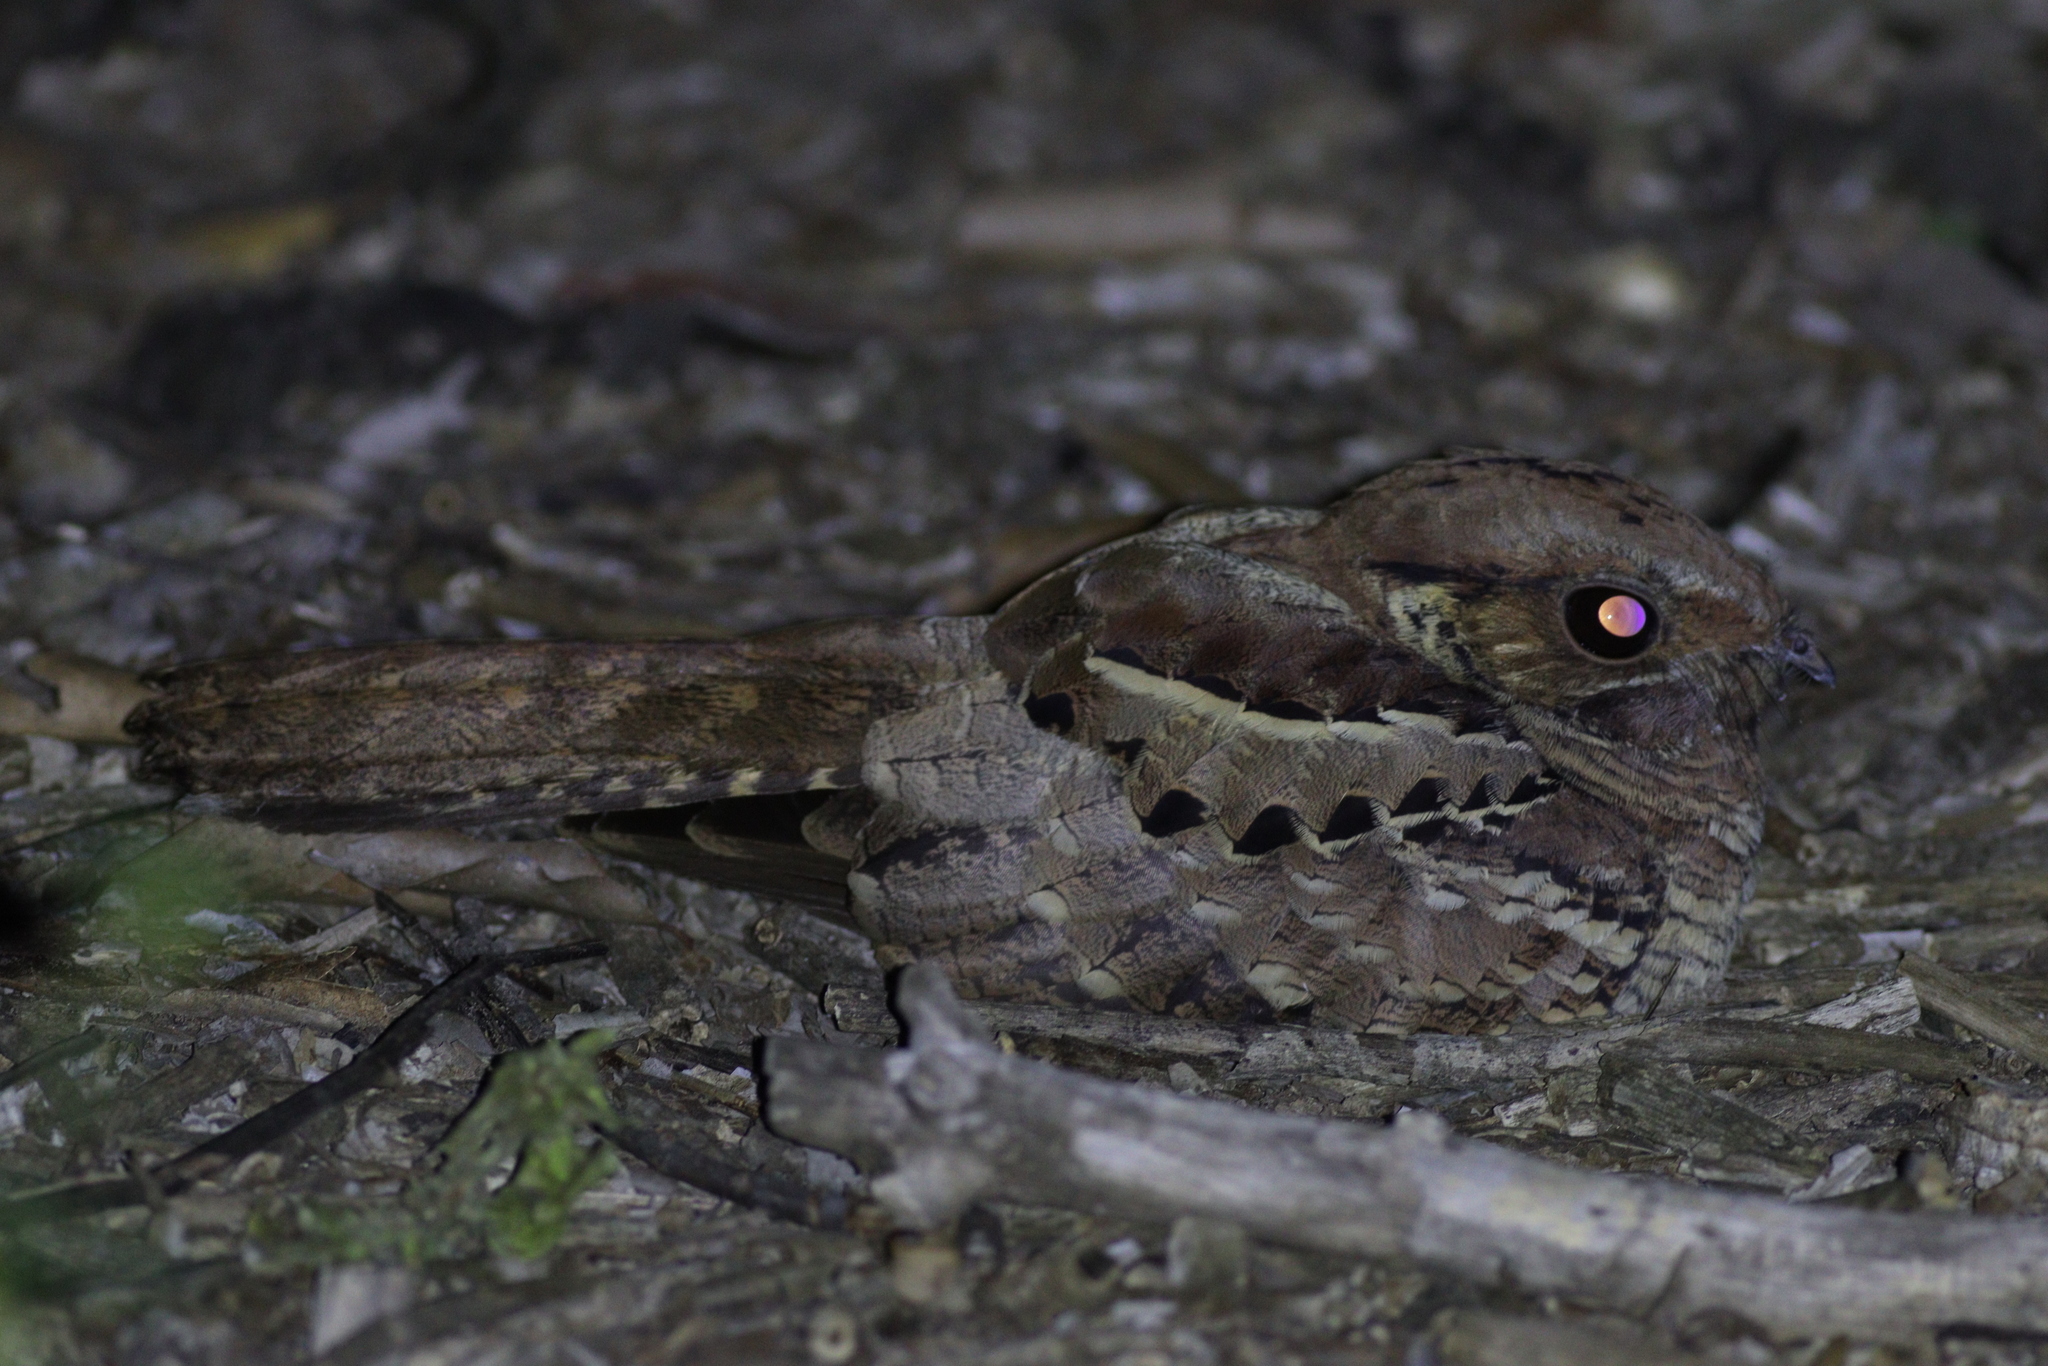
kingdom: Animalia
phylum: Chordata
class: Aves
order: Caprimulgiformes
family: Caprimulgidae
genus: Nyctidromus
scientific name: Nyctidromus albicollis
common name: Pauraque
